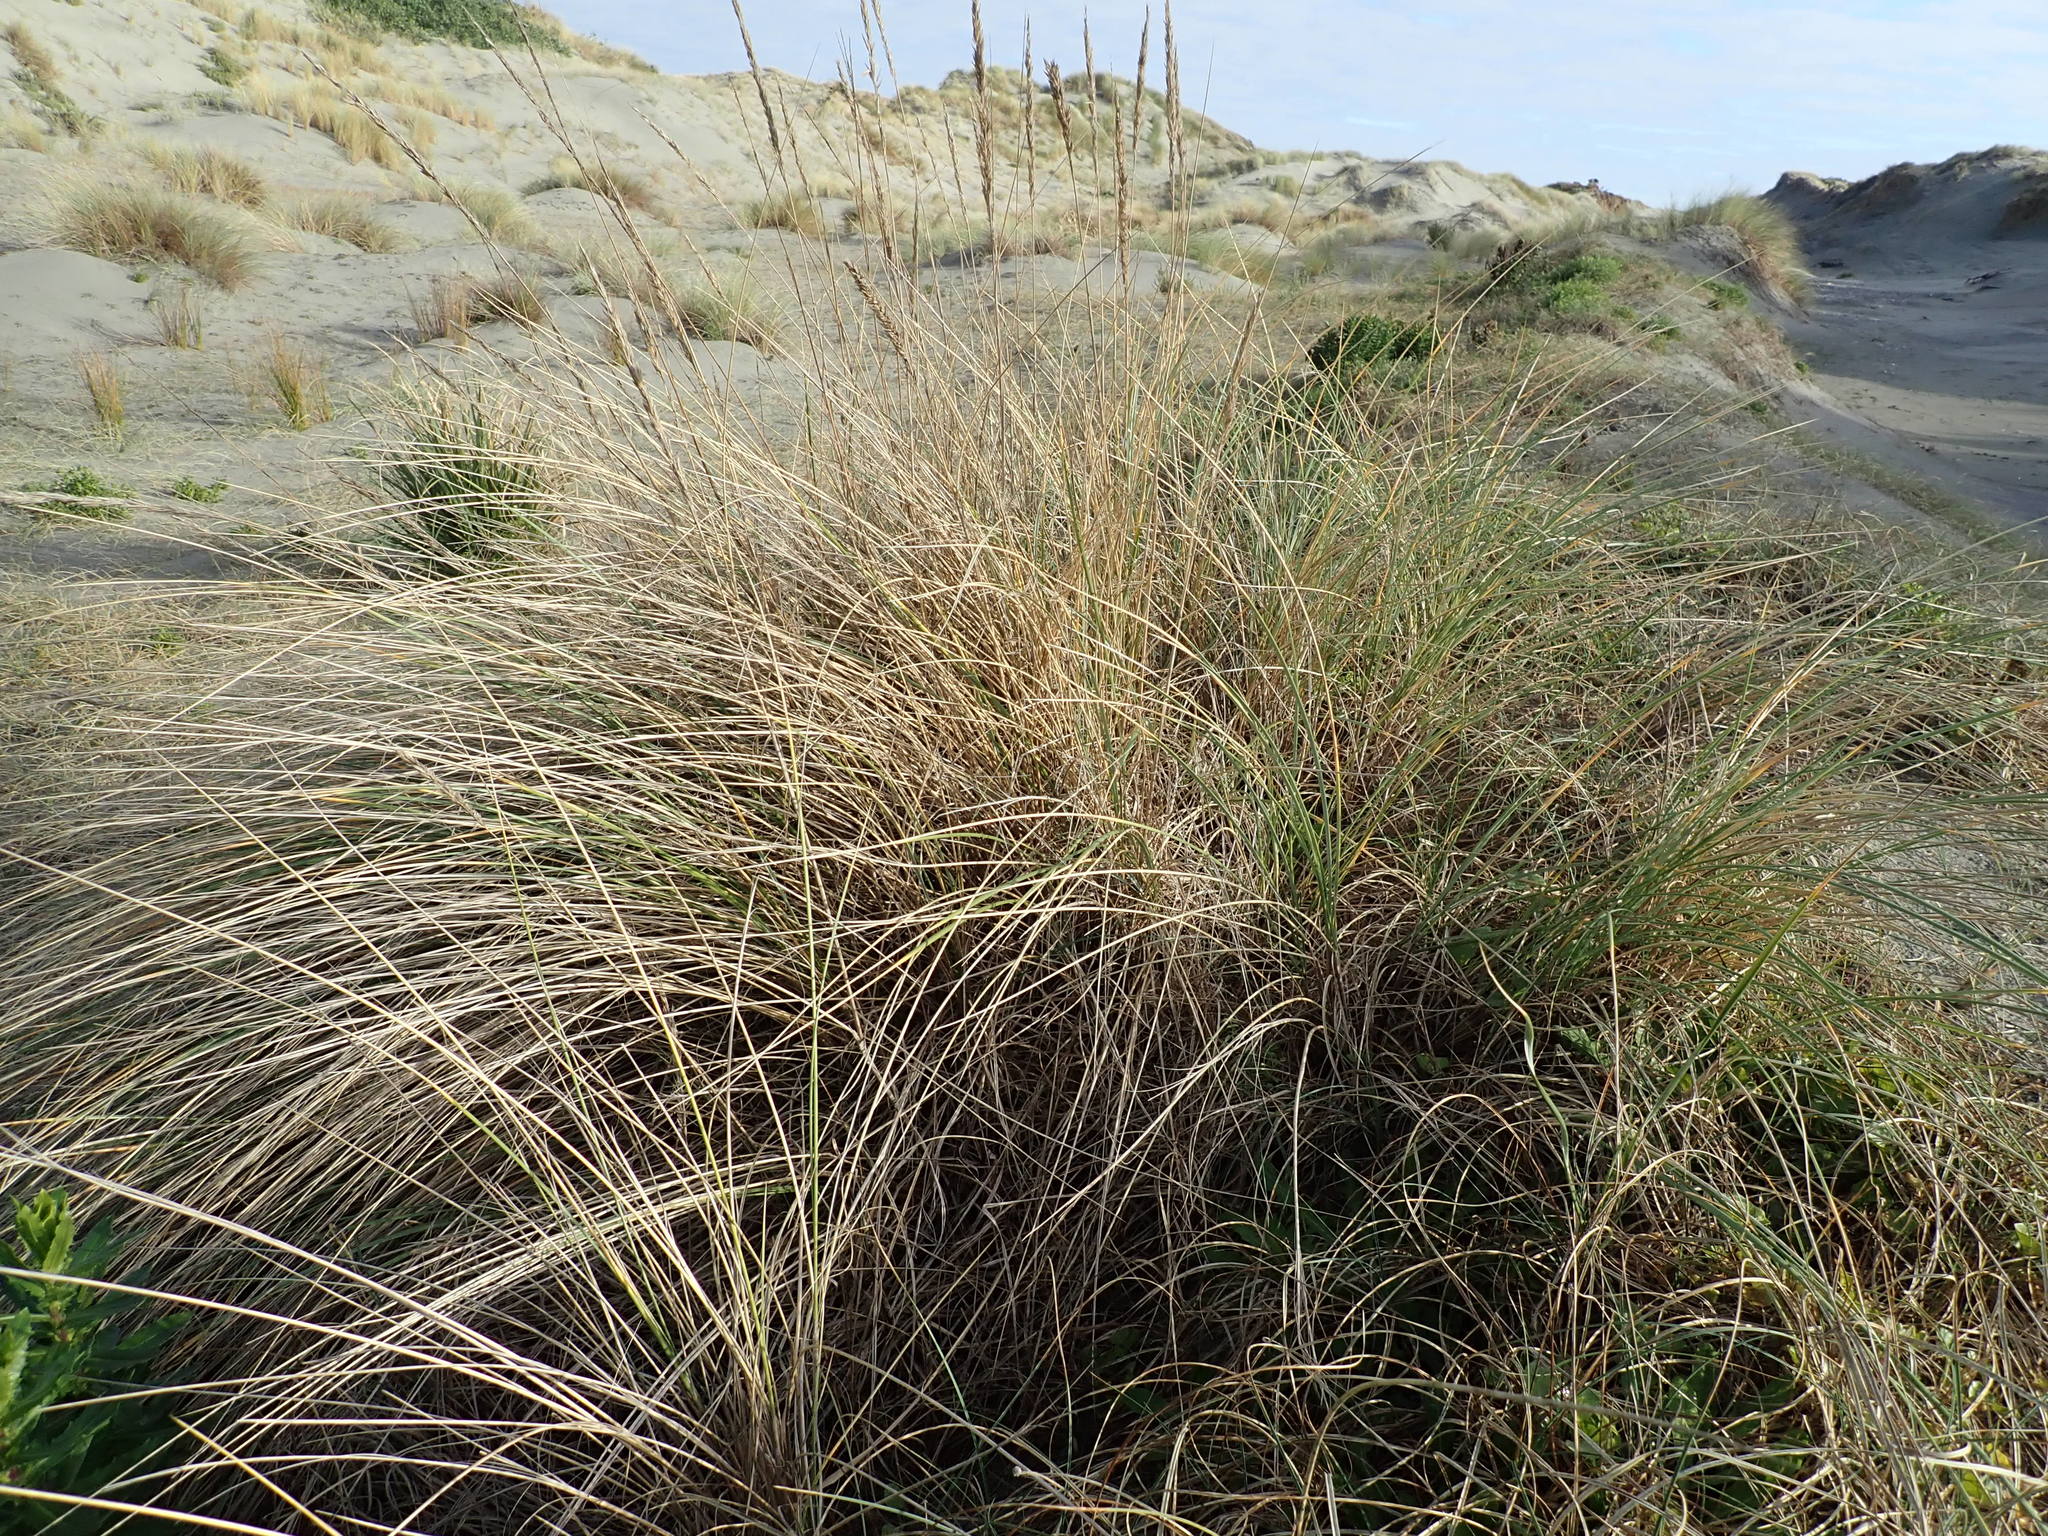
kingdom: Plantae
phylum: Tracheophyta
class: Liliopsida
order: Poales
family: Poaceae
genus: Calamagrostis
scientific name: Calamagrostis arenaria
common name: European beachgrass
